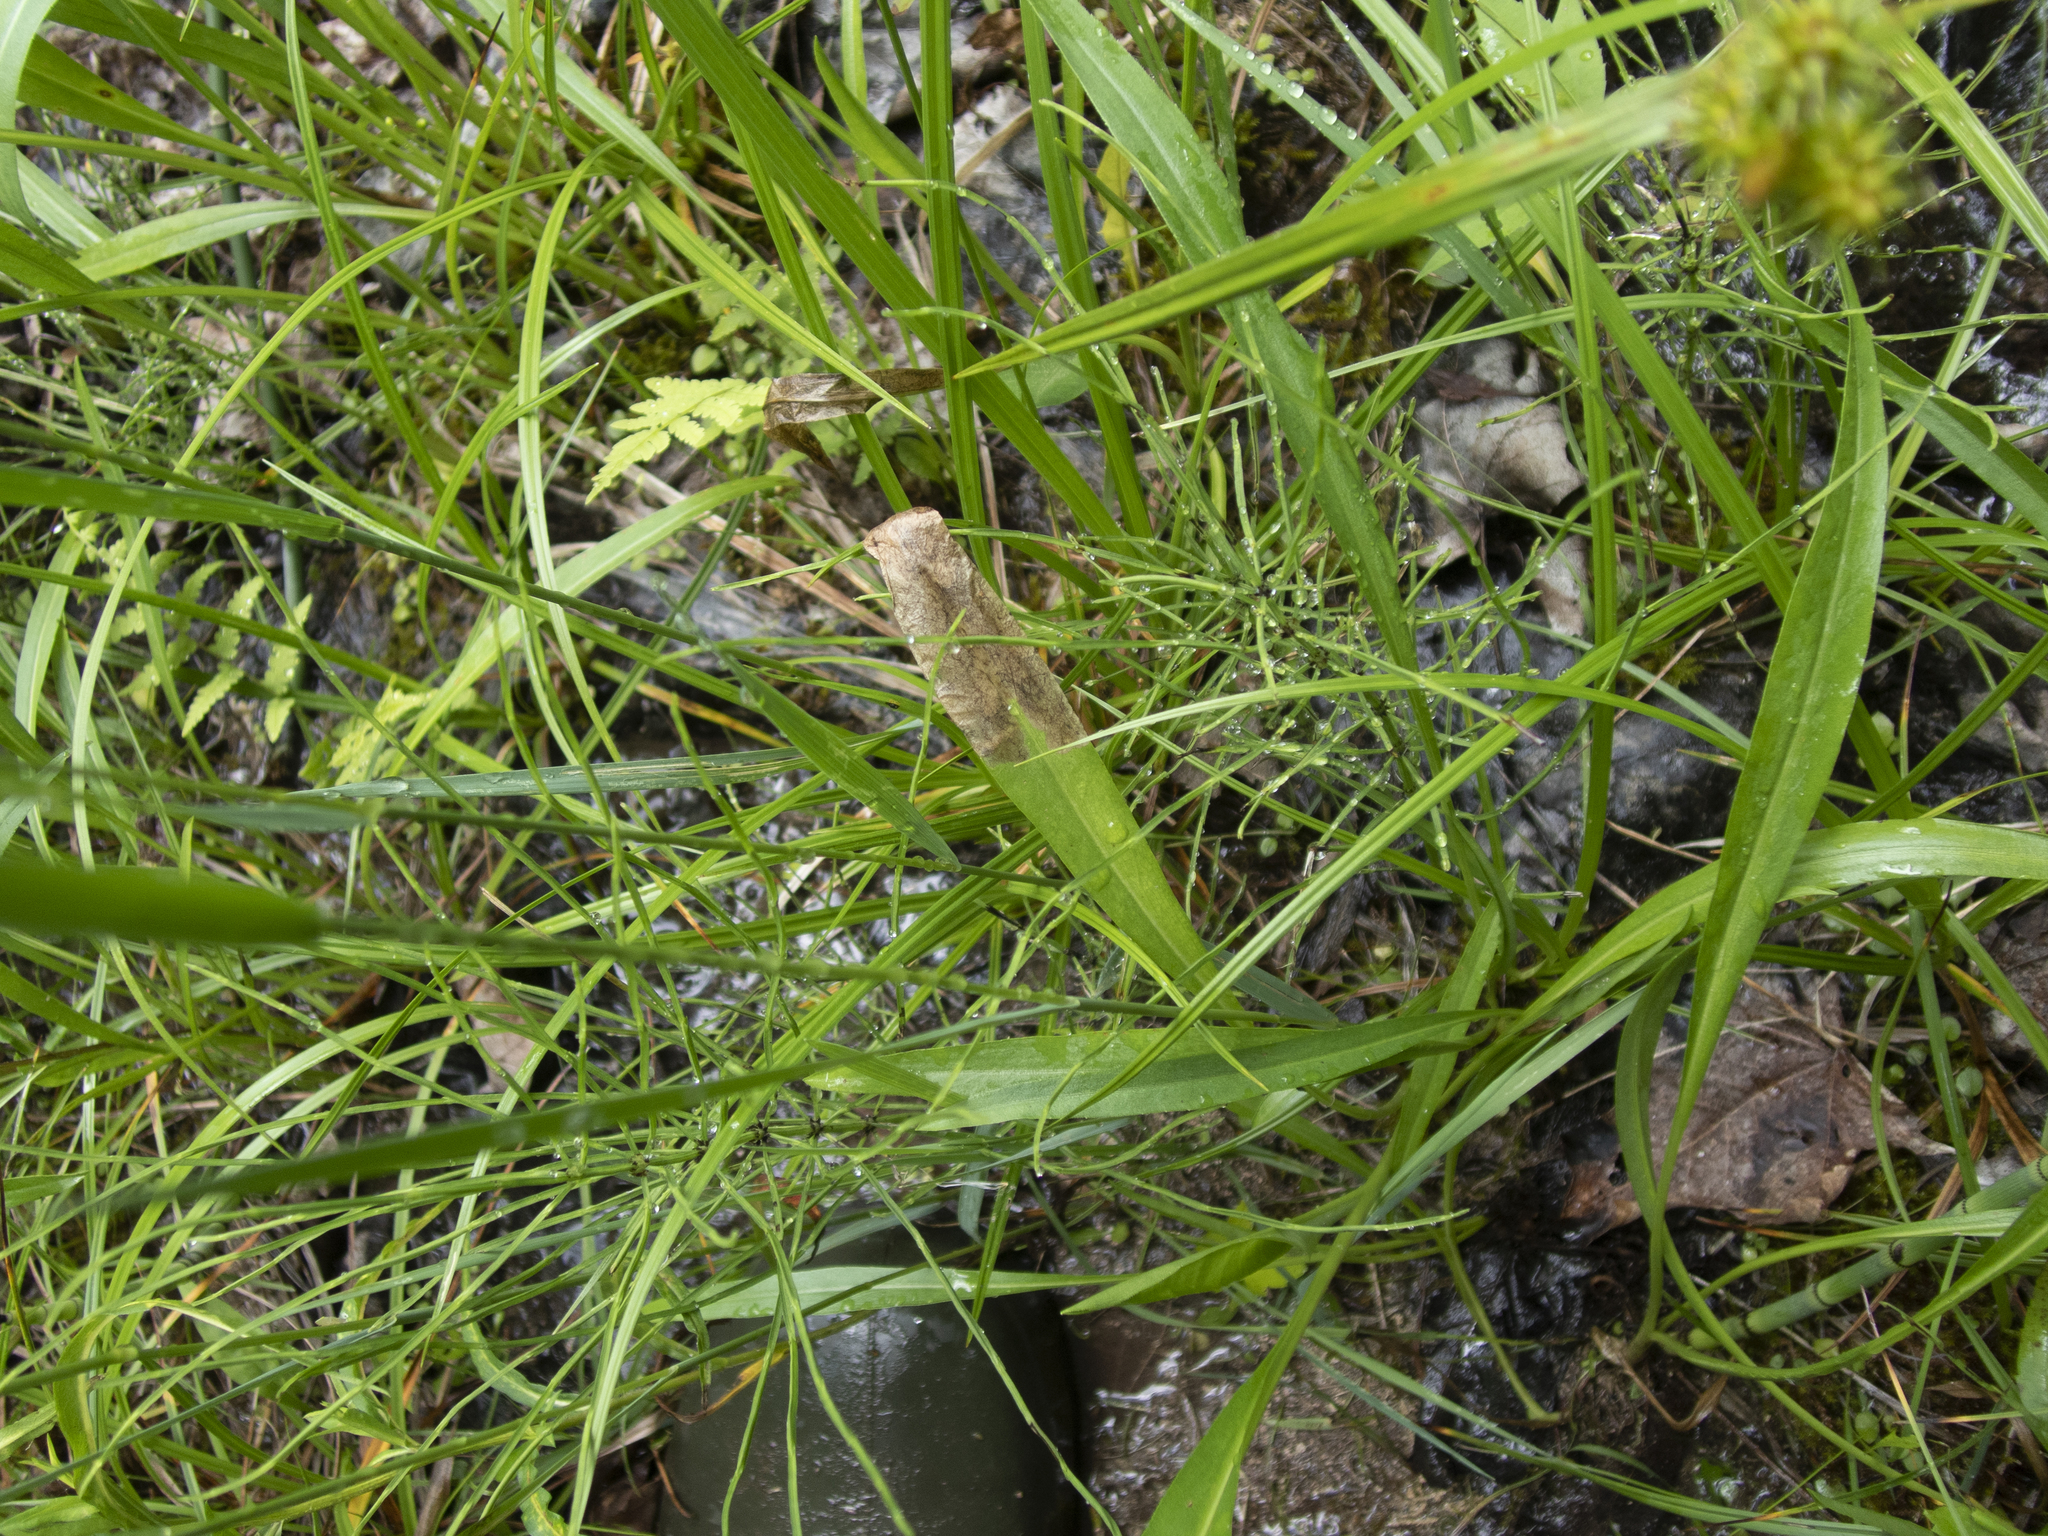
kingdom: Plantae
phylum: Tracheophyta
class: Magnoliopsida
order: Asterales
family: Asteraceae
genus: Solidago
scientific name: Solidago ohioensis
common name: Ohio goldenrod
